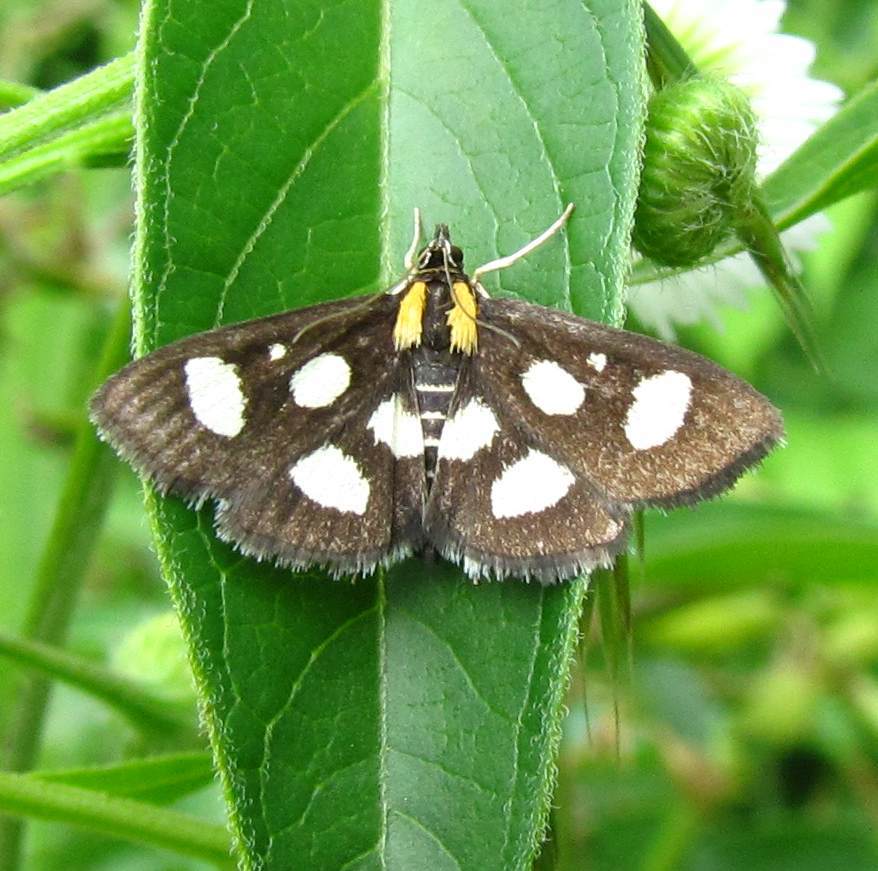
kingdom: Animalia
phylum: Arthropoda
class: Insecta
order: Lepidoptera
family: Crambidae
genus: Anania
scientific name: Anania funebris
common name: White-spotted sable moth
